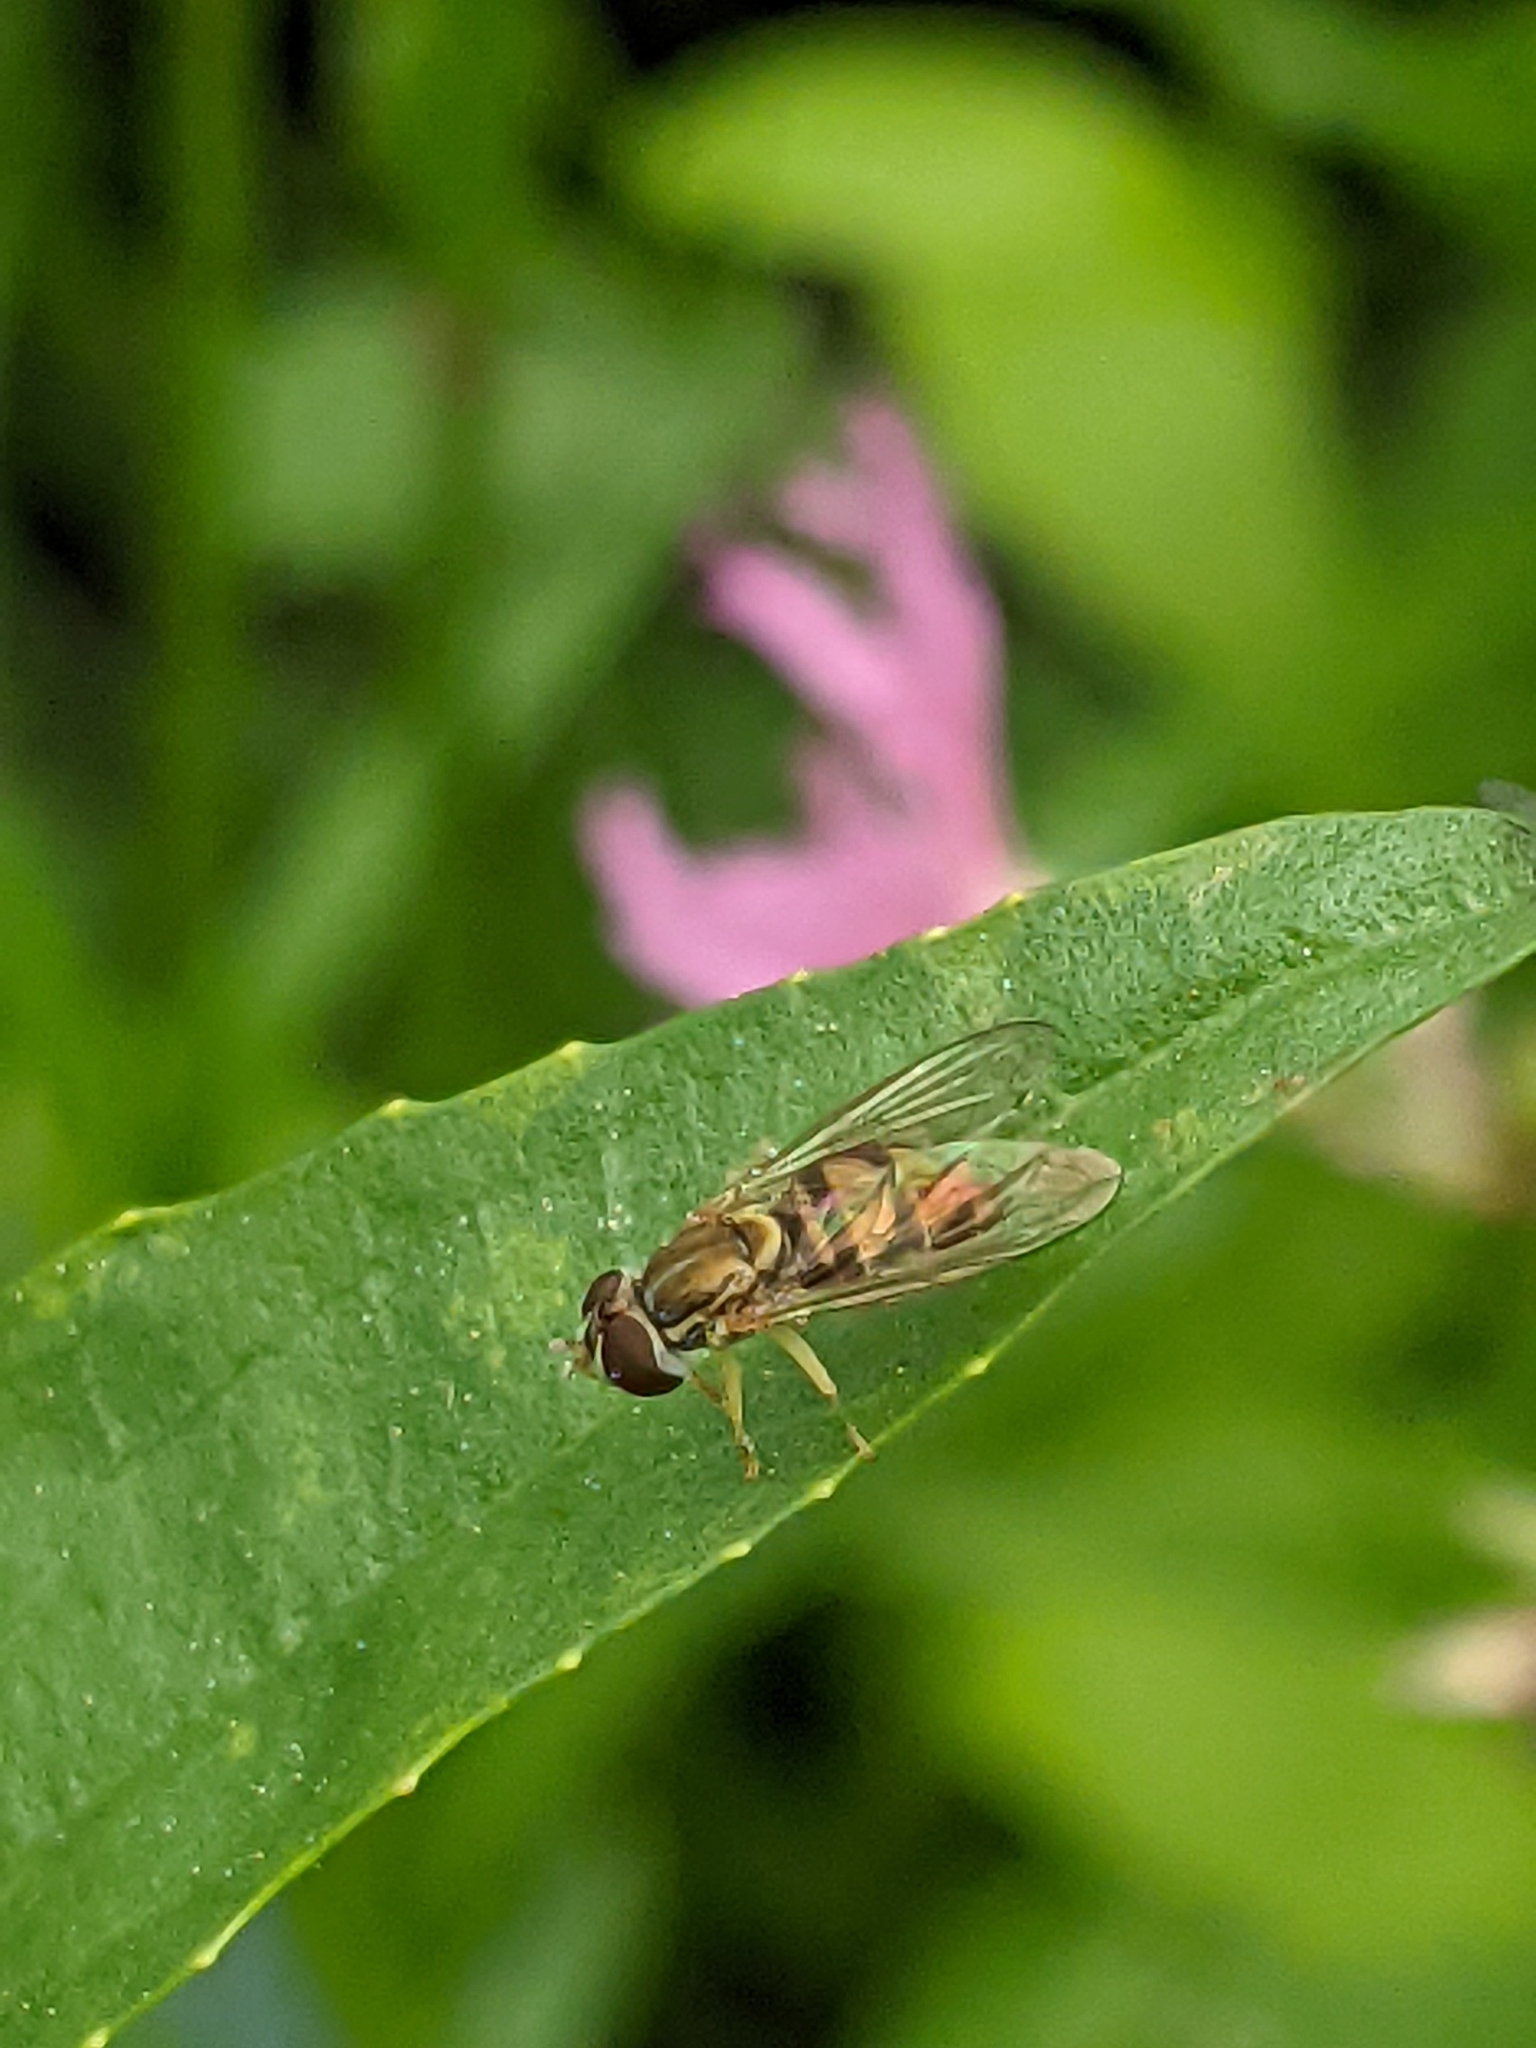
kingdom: Animalia
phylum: Arthropoda
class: Insecta
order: Diptera
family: Syrphidae
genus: Toxomerus
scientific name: Toxomerus marginatus
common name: Syrphid fly
